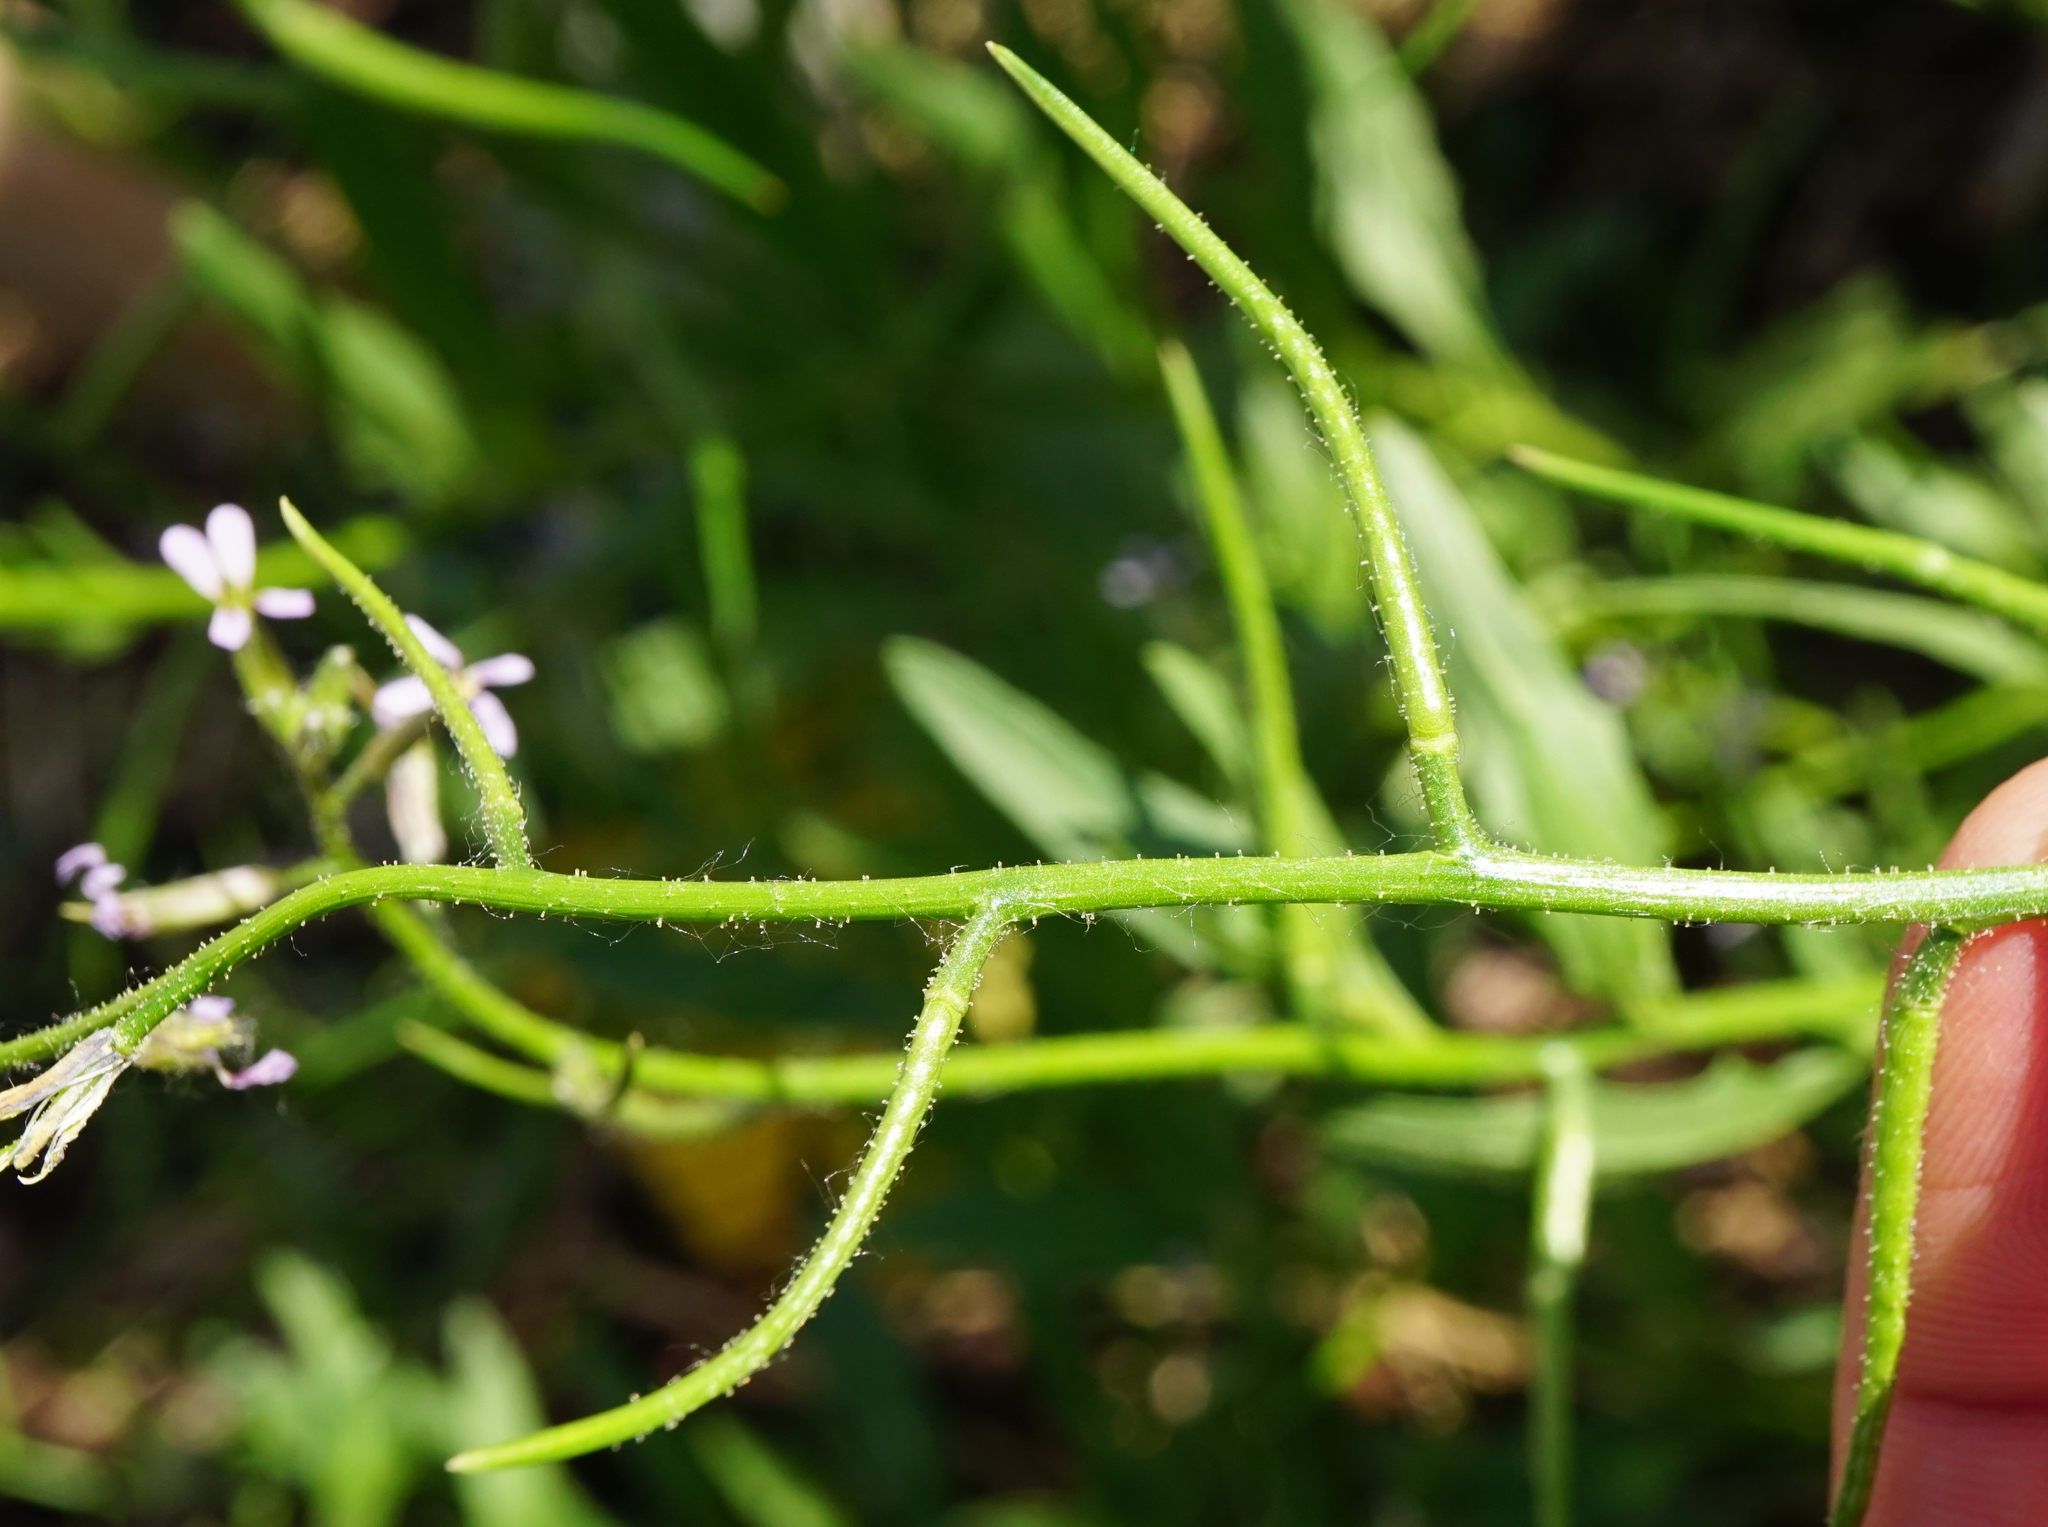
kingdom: Plantae
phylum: Tracheophyta
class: Magnoliopsida
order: Brassicales
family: Brassicaceae
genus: Chorispora
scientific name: Chorispora tenella
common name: Crossflower
